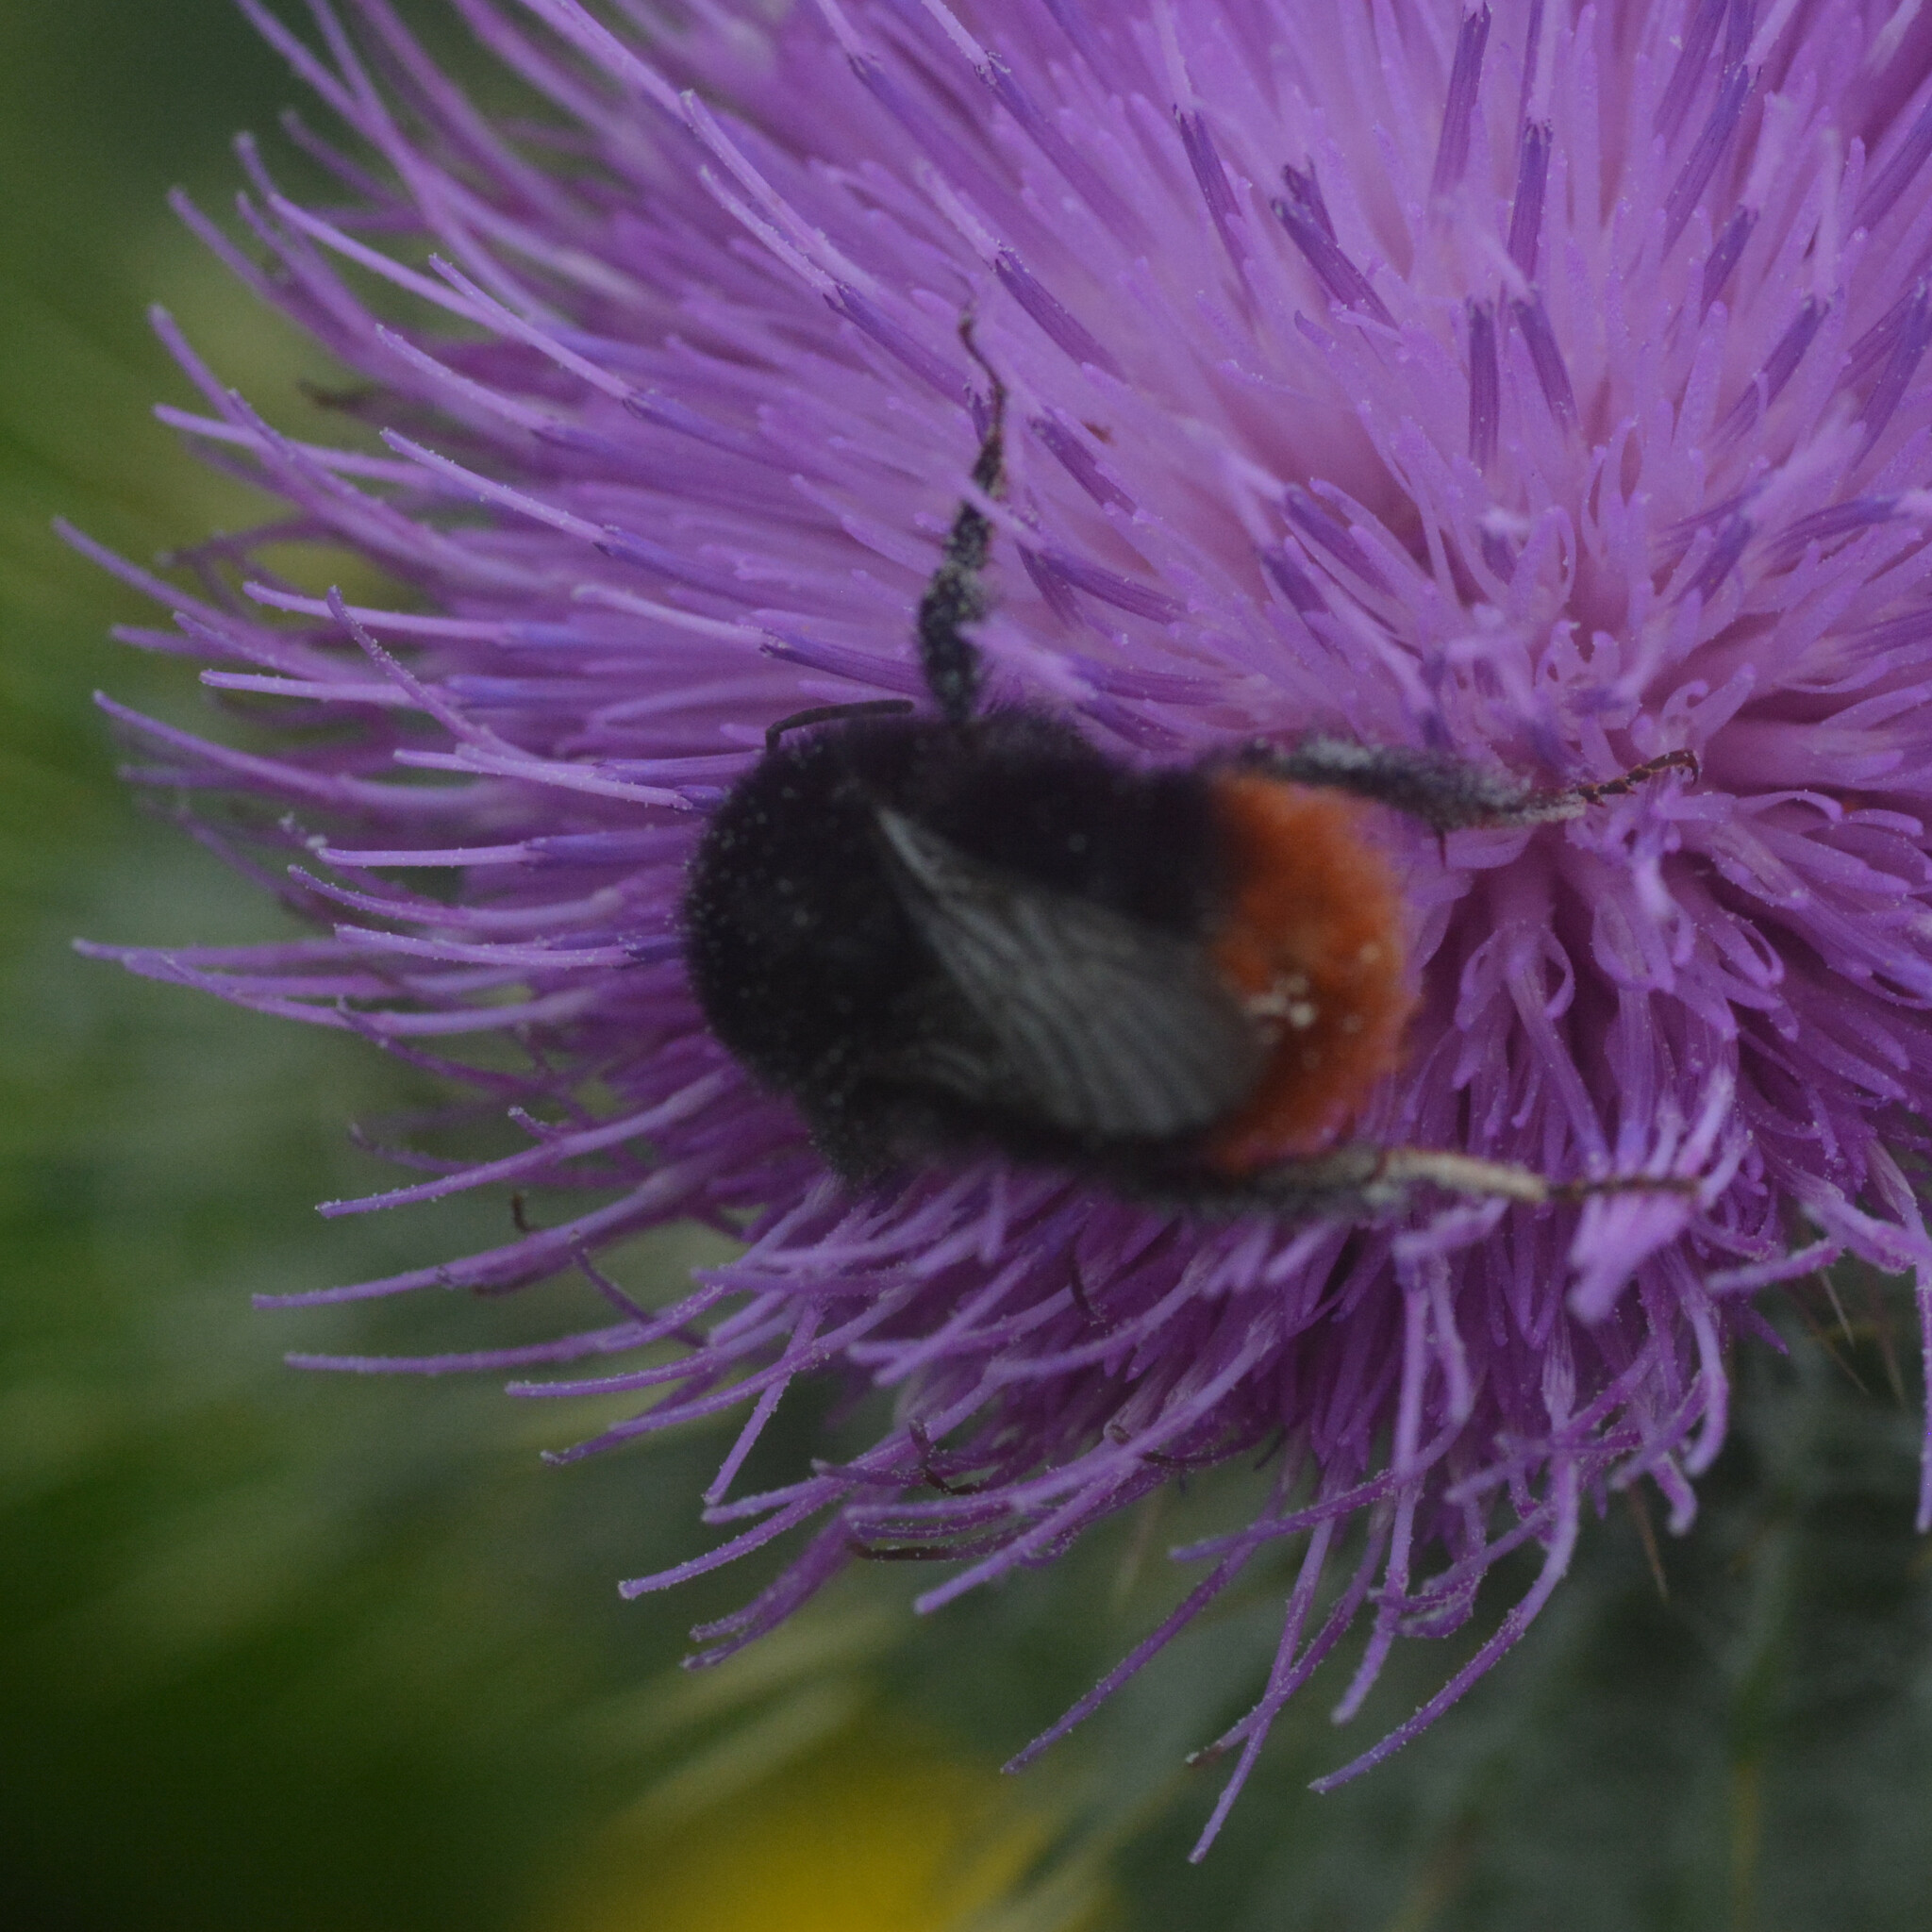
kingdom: Animalia
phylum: Arthropoda
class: Insecta
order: Hymenoptera
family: Apidae
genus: Bombus
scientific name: Bombus lapidarius
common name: Large red-tailed humble-bee
